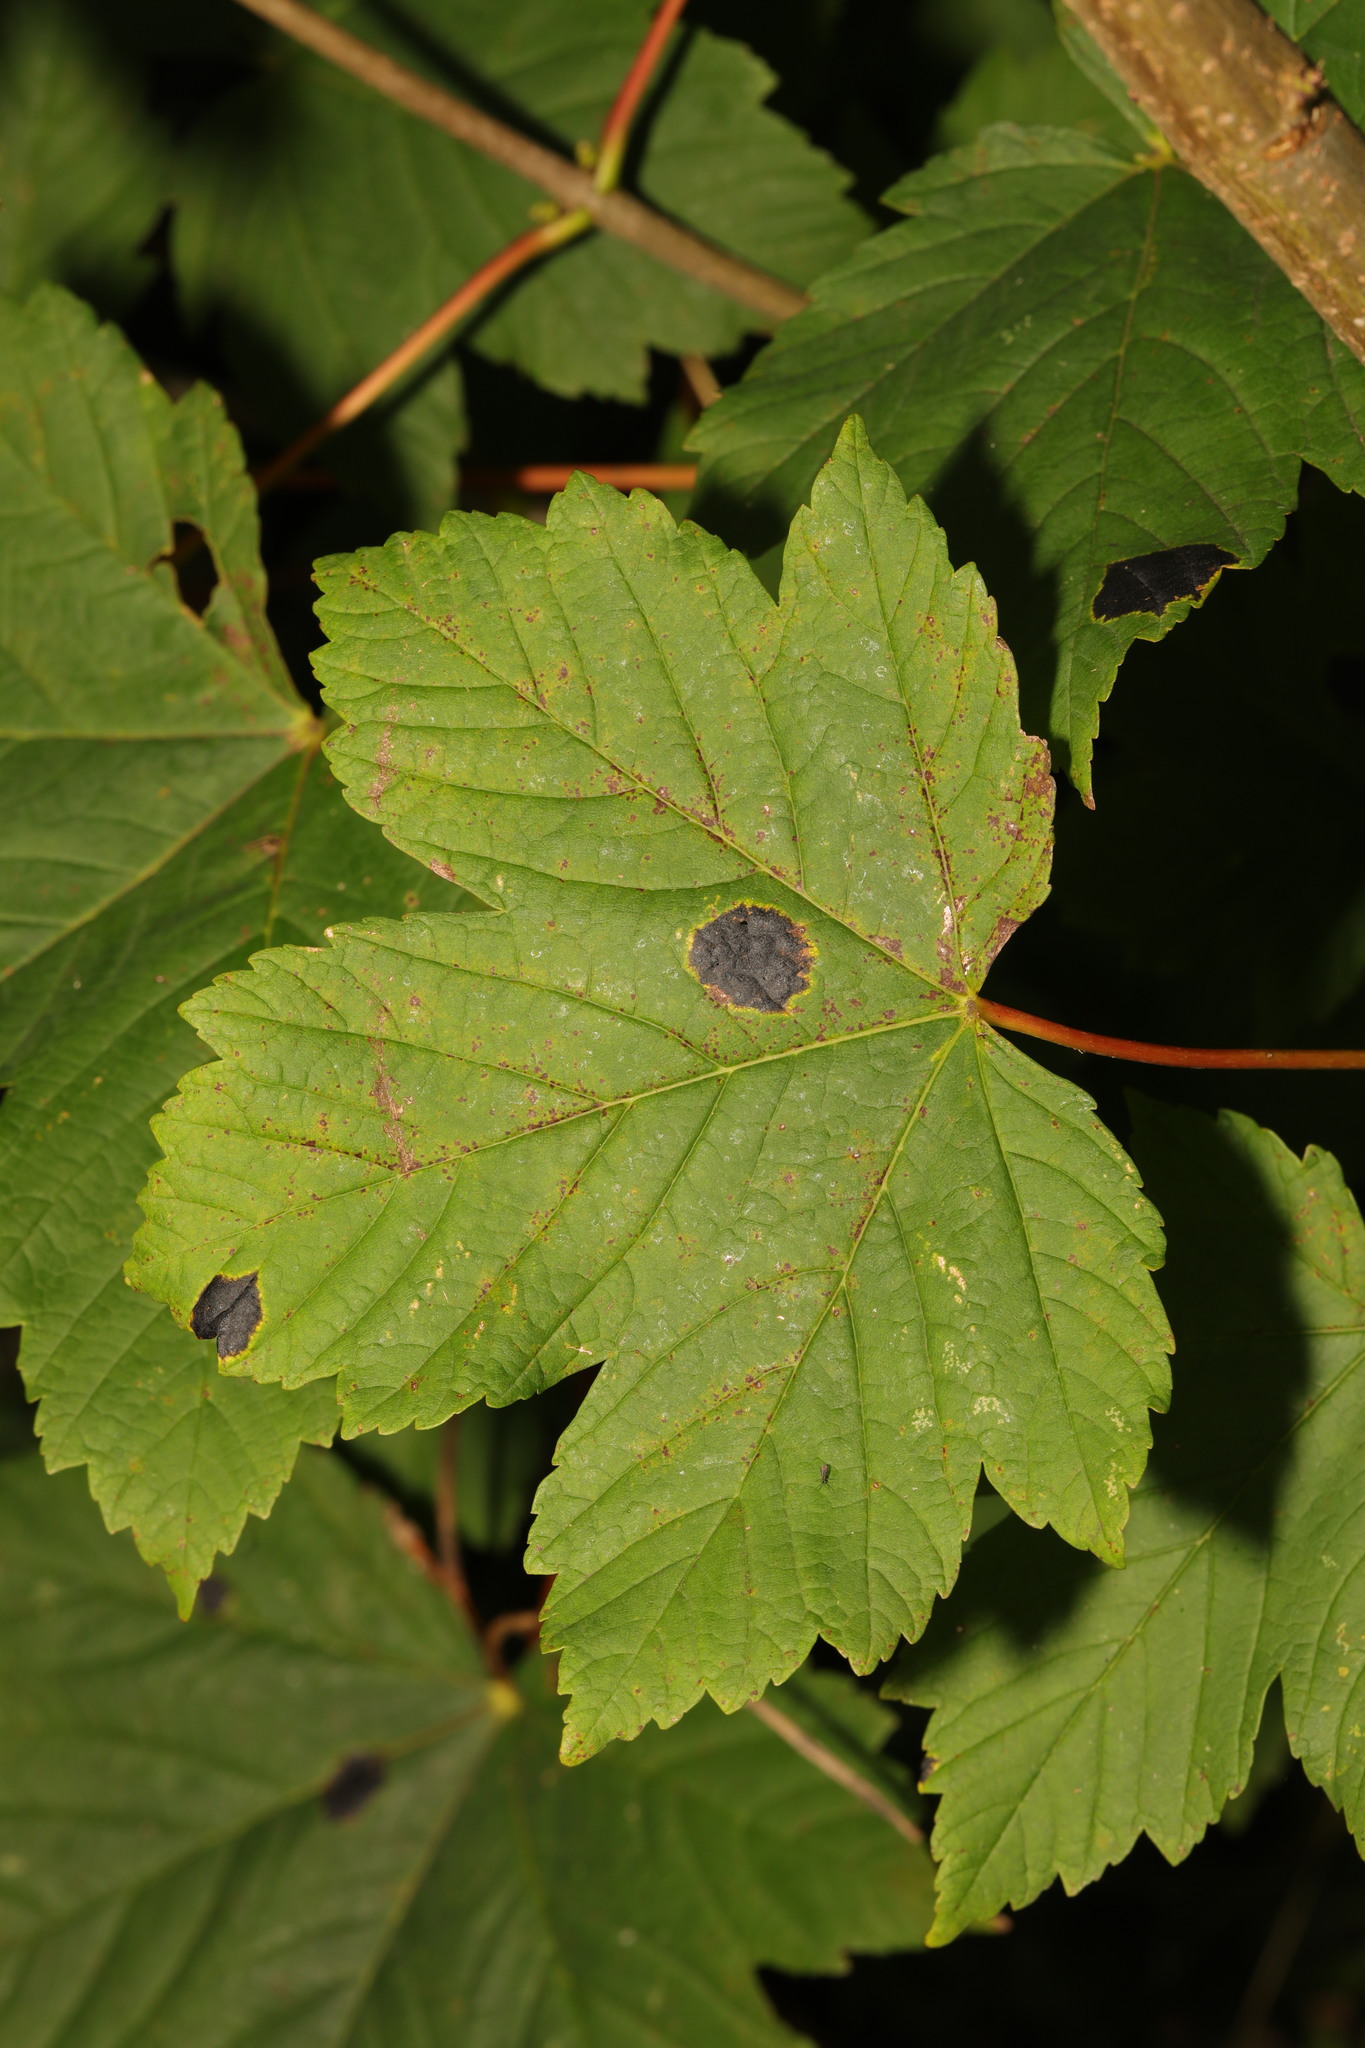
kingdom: Plantae
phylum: Tracheophyta
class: Magnoliopsida
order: Sapindales
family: Sapindaceae
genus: Acer
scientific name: Acer pseudoplatanus
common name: Sycamore
